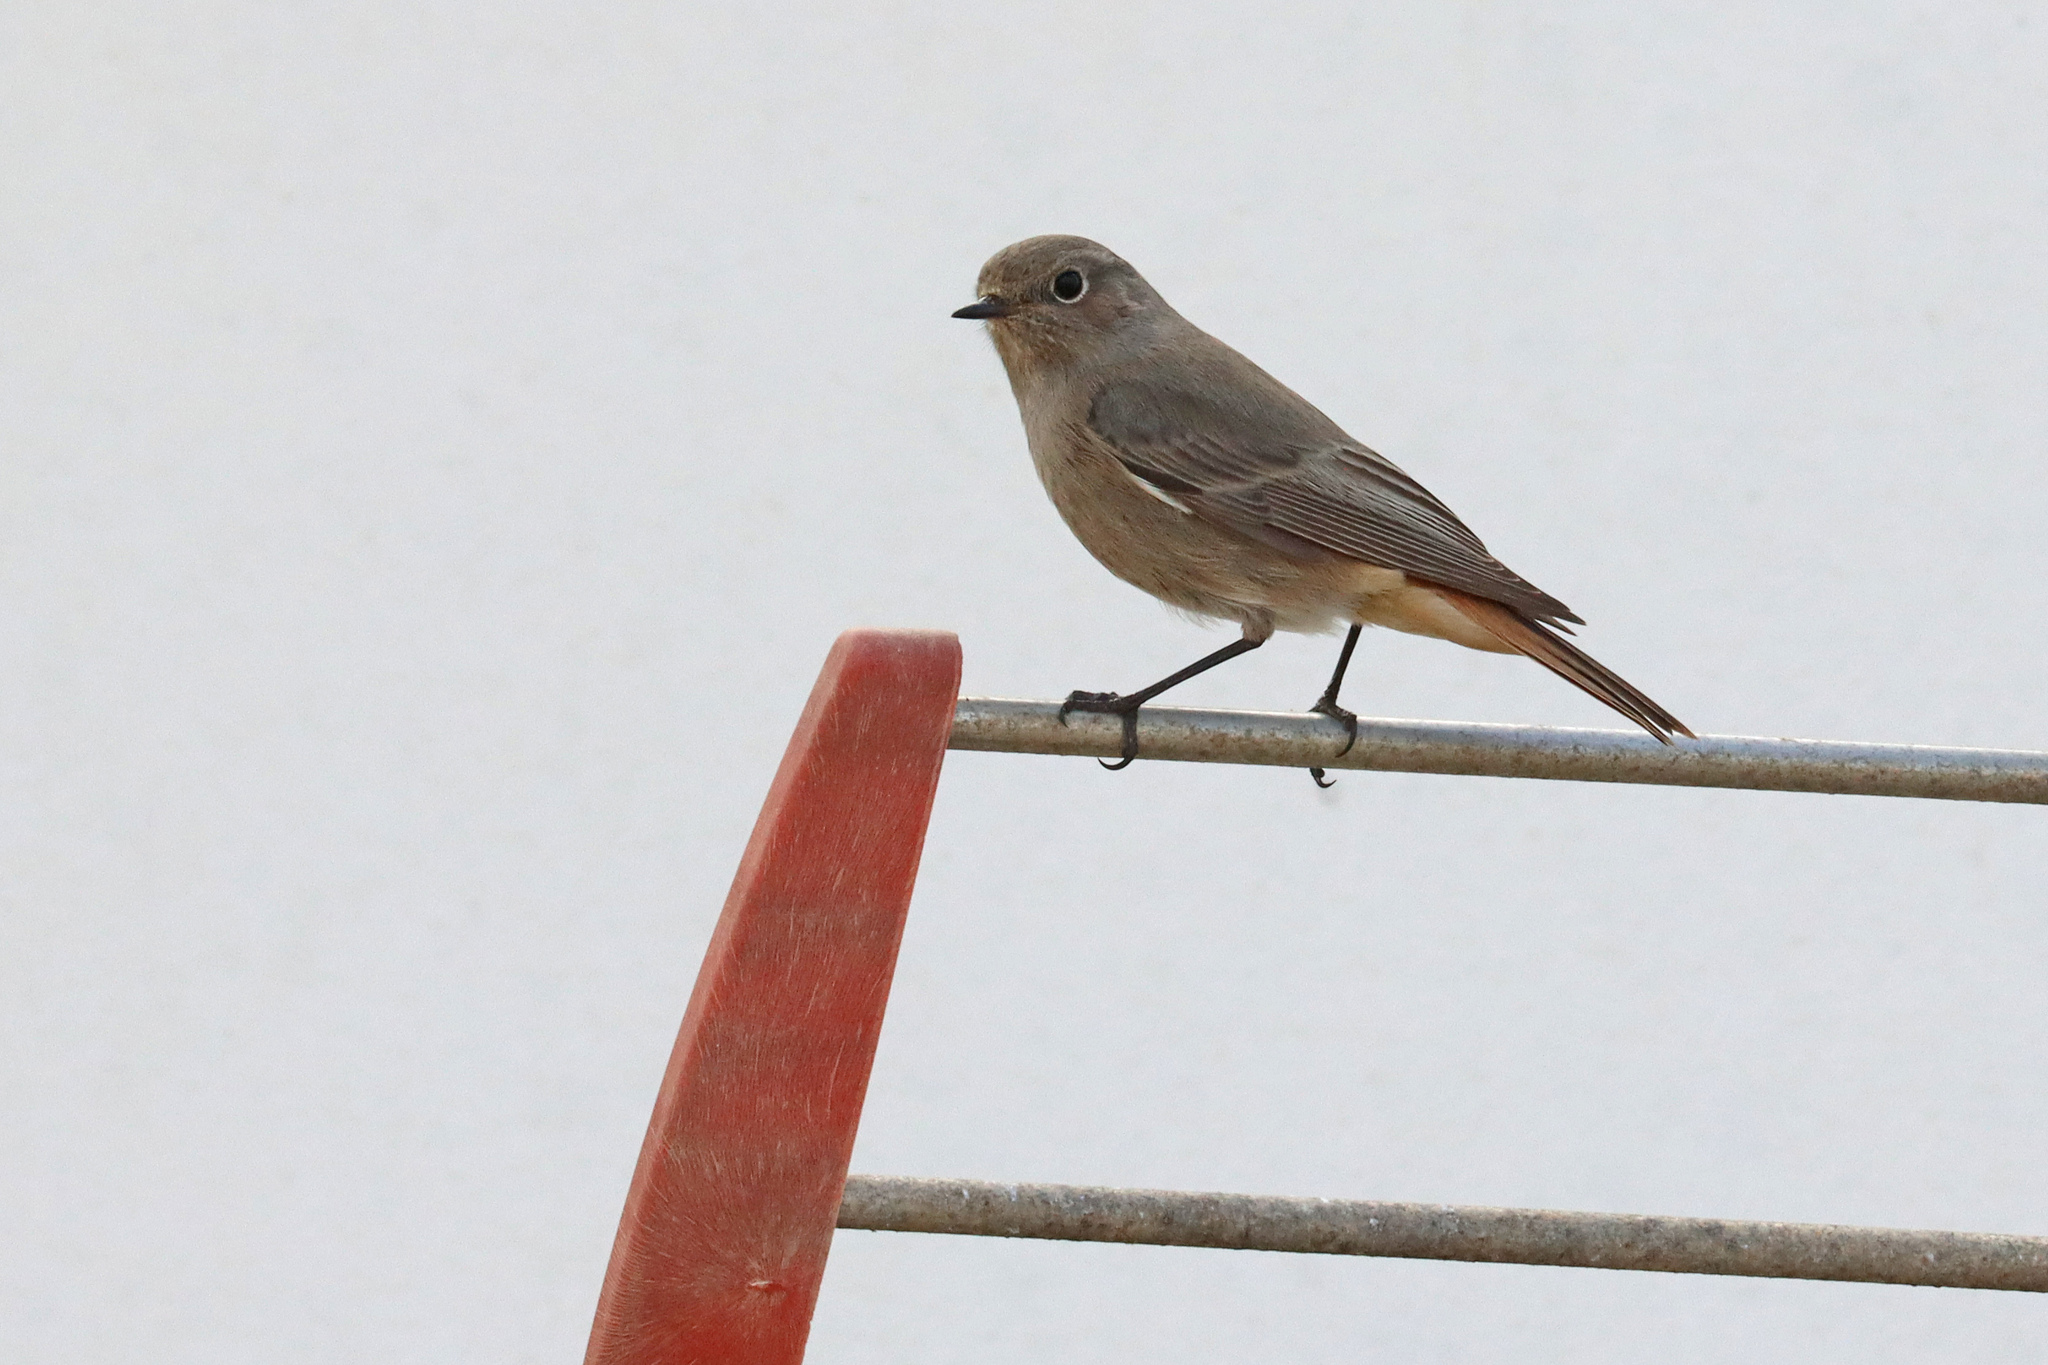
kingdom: Animalia
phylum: Chordata
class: Aves
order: Passeriformes
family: Muscicapidae
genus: Phoenicurus
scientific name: Phoenicurus ochruros
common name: Black redstart
